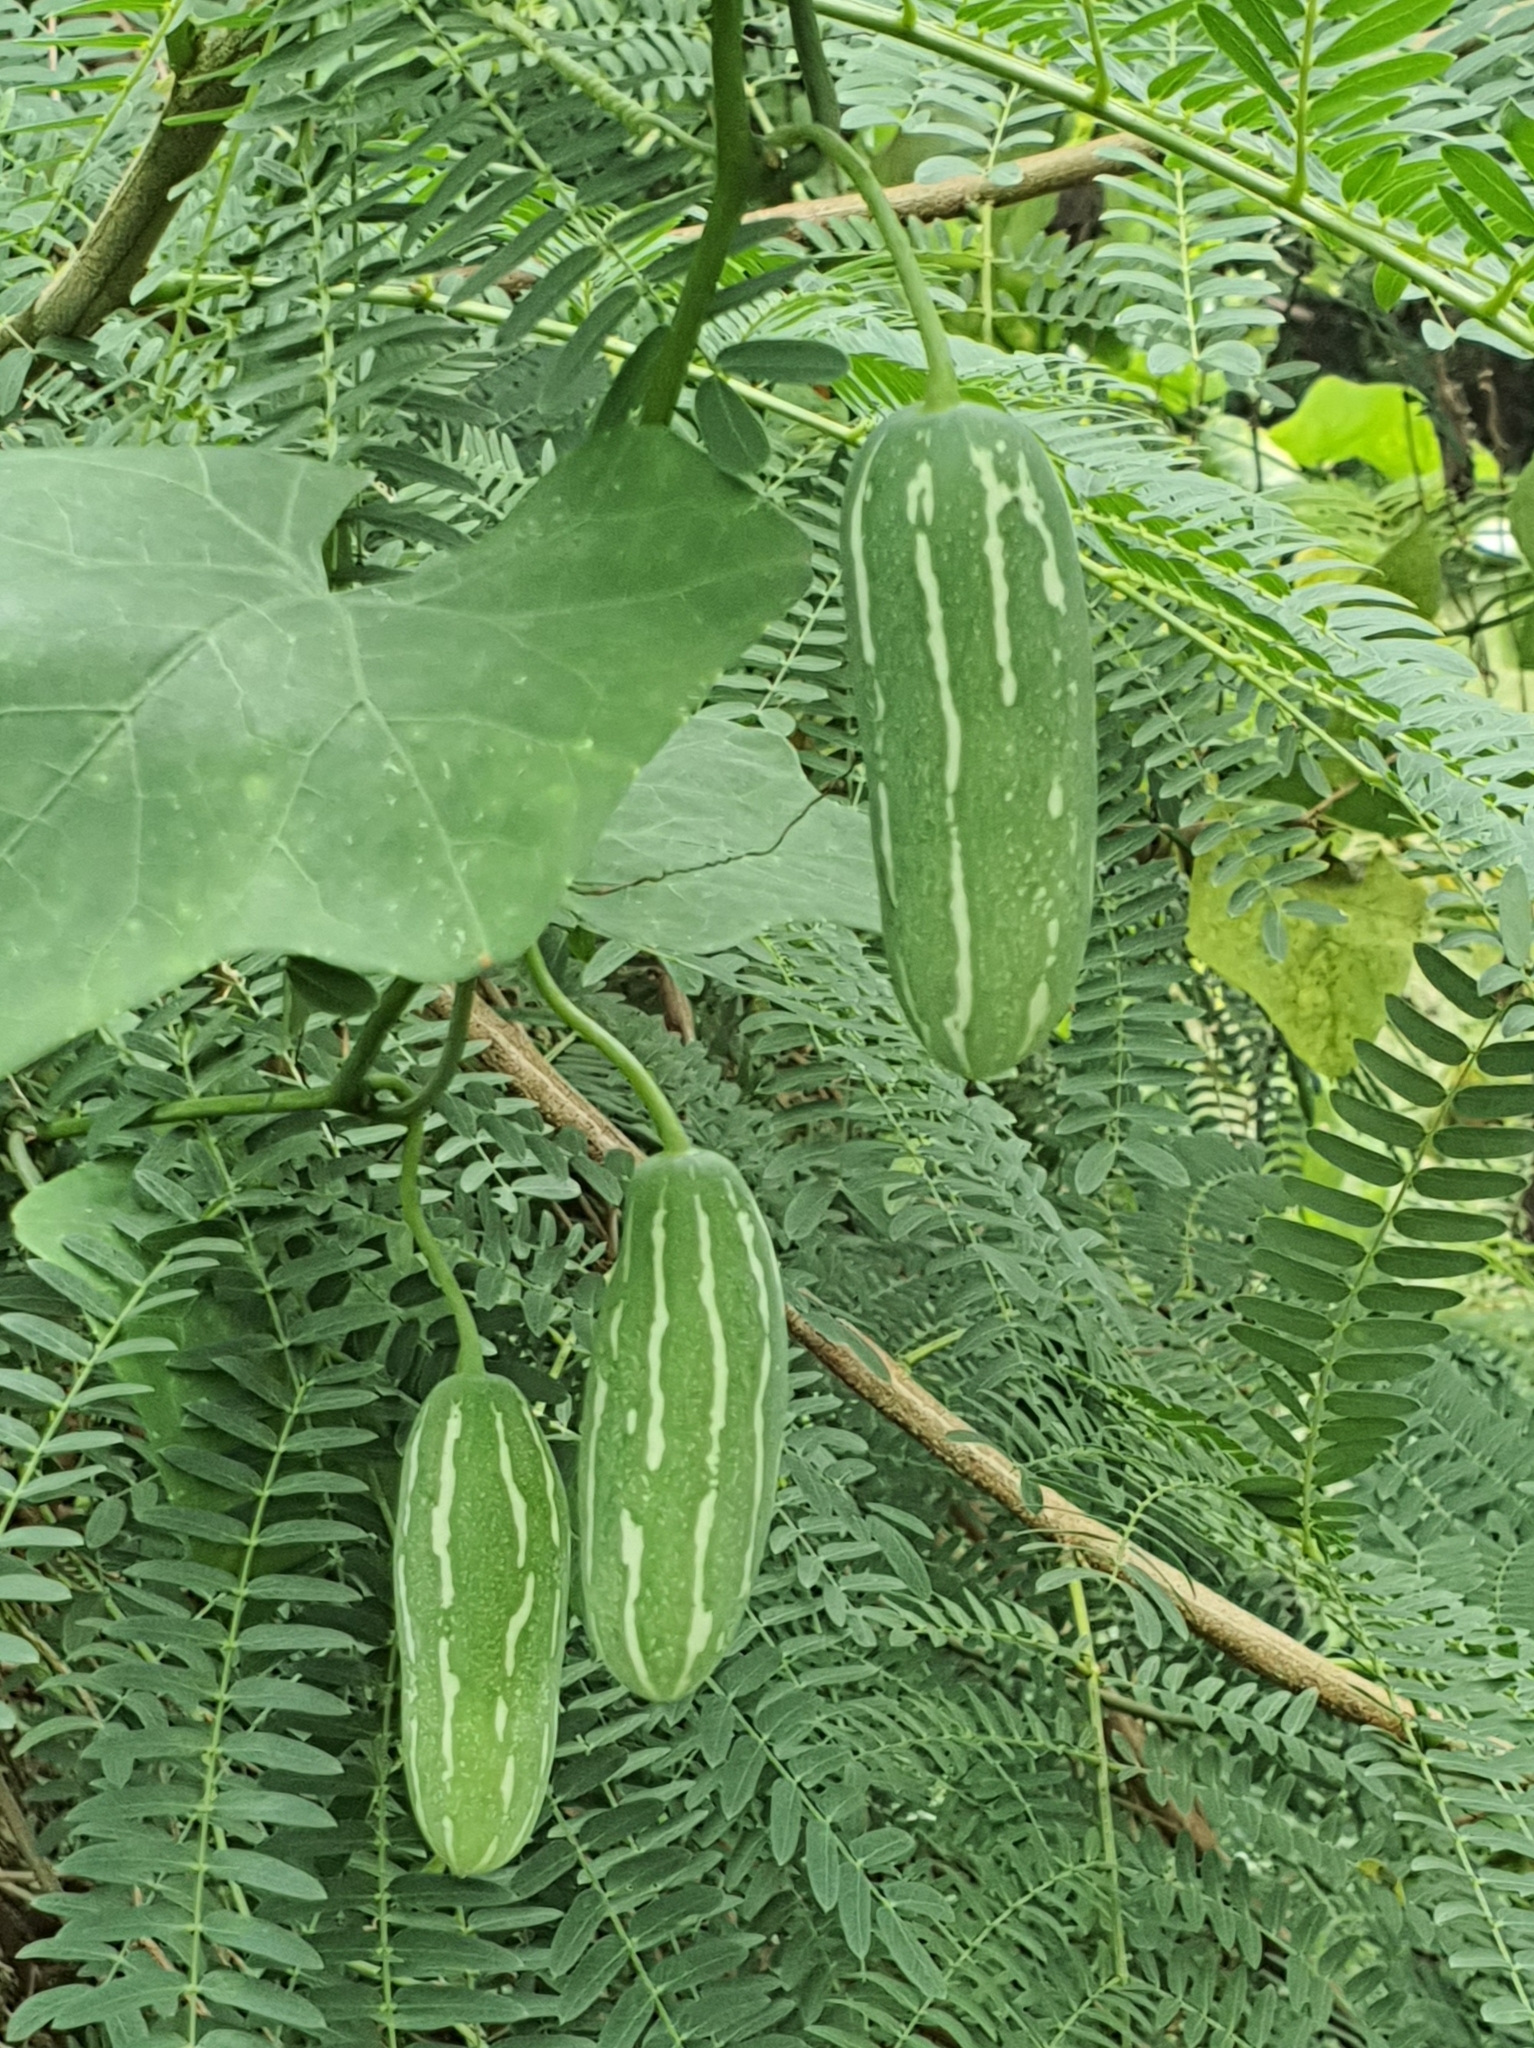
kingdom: Plantae
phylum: Tracheophyta
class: Magnoliopsida
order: Cucurbitales
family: Cucurbitaceae
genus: Coccinia
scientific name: Coccinia grandis
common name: Ivy gourd
